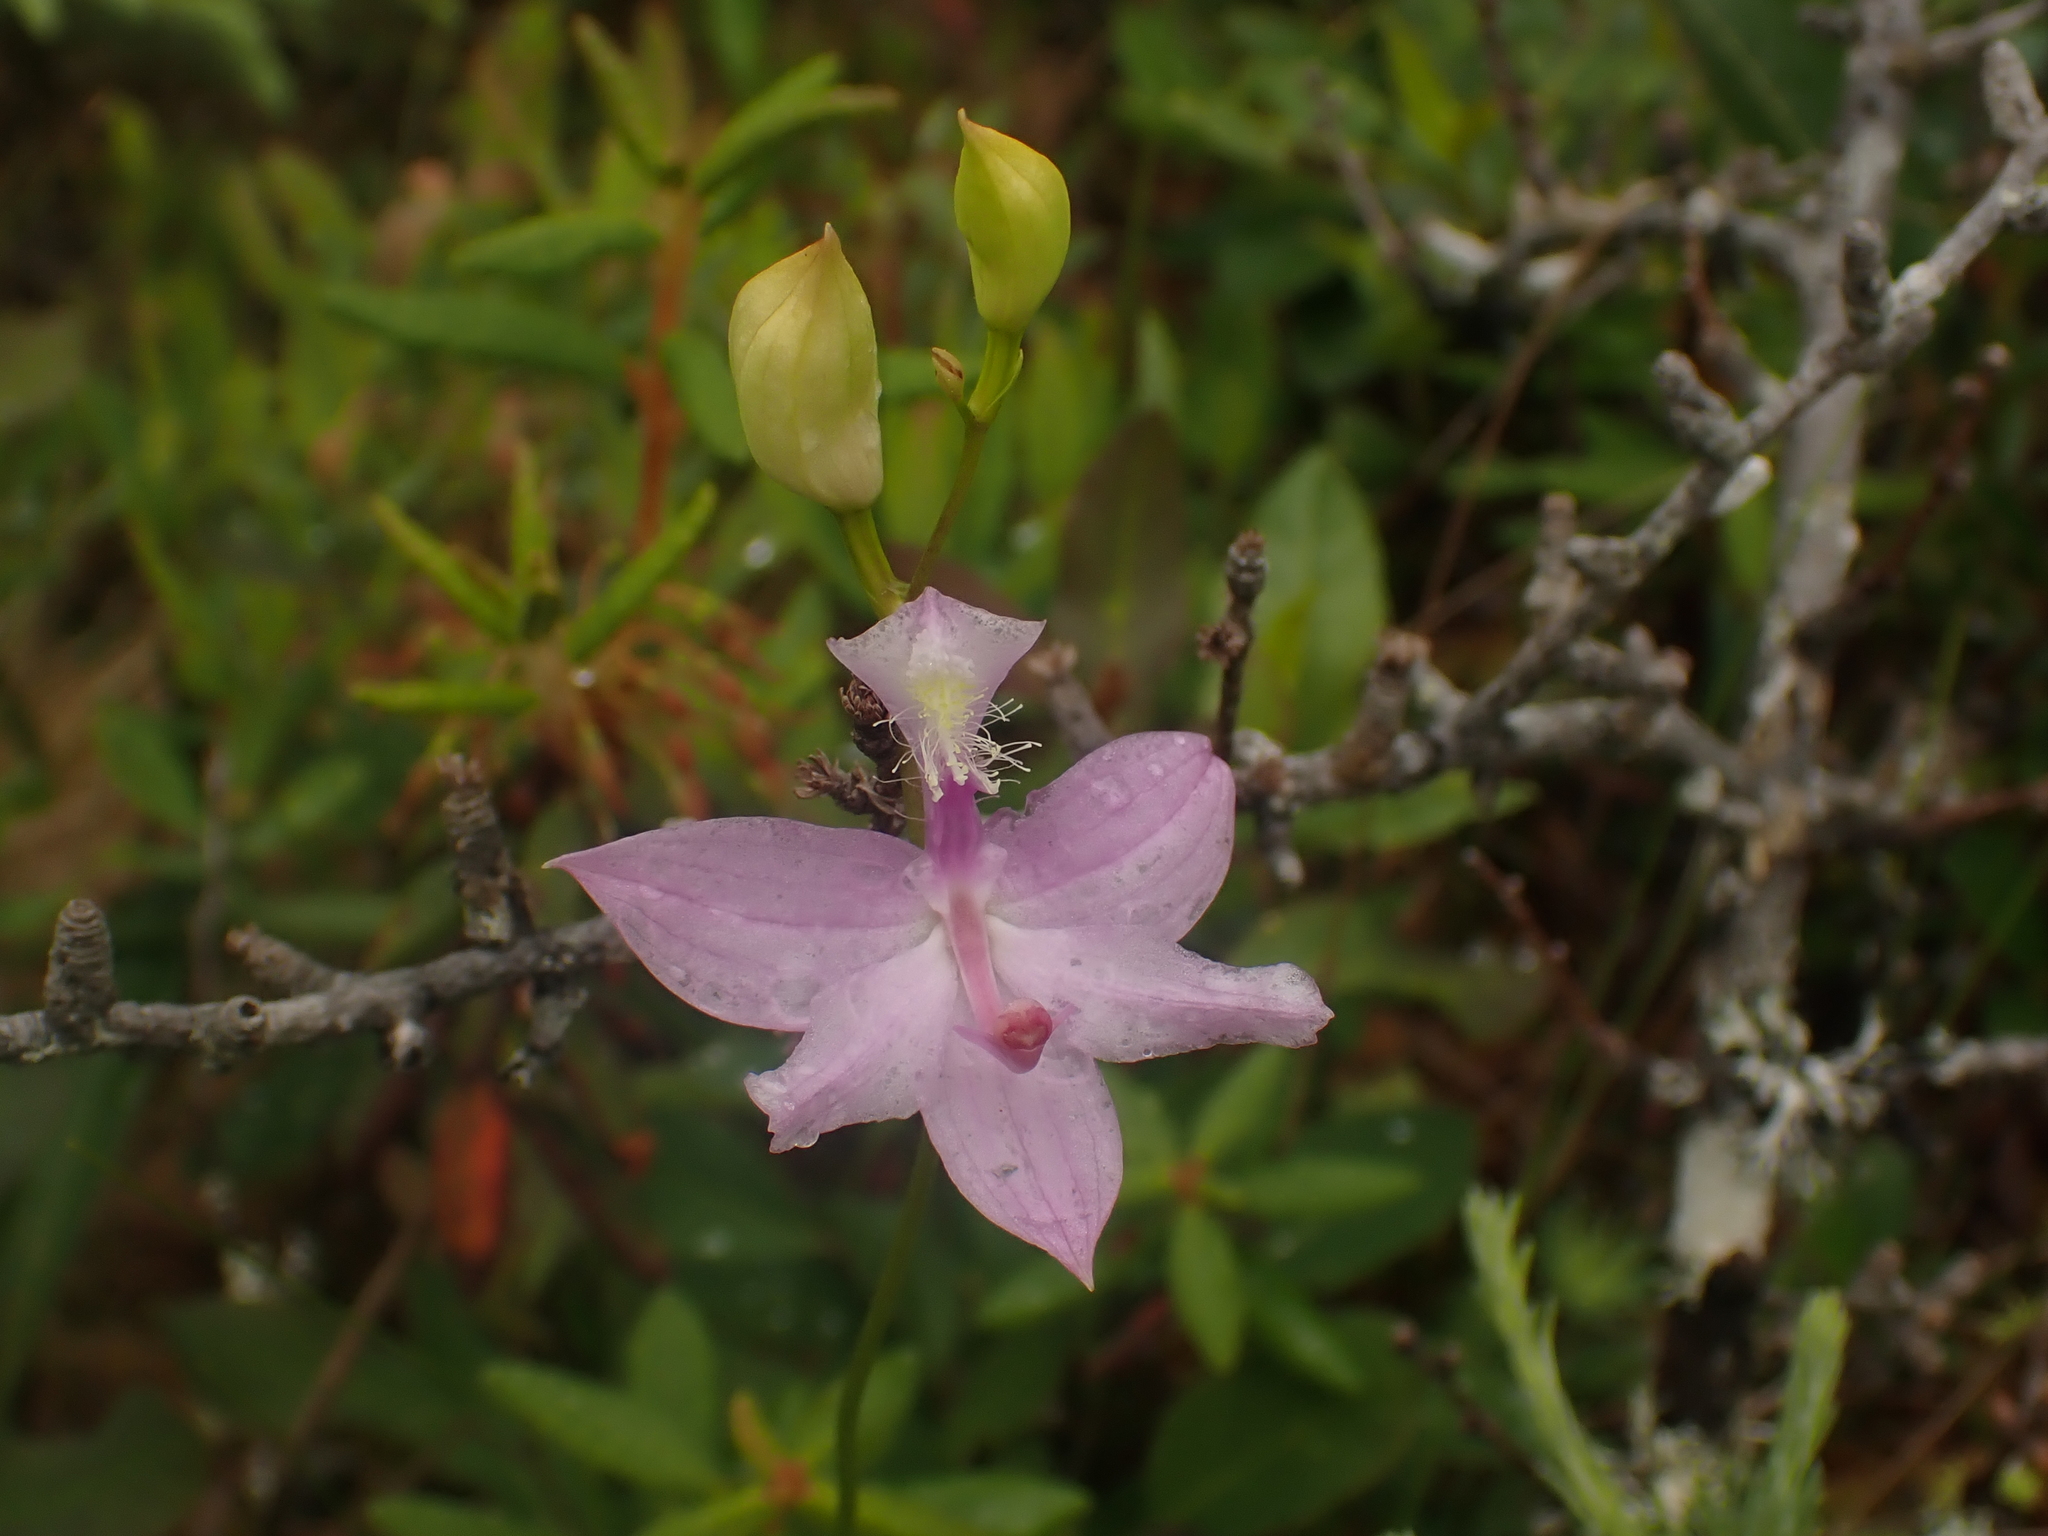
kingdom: Plantae
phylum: Tracheophyta
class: Liliopsida
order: Asparagales
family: Orchidaceae
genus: Calopogon
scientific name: Calopogon tuberosus
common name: Grass-pink
